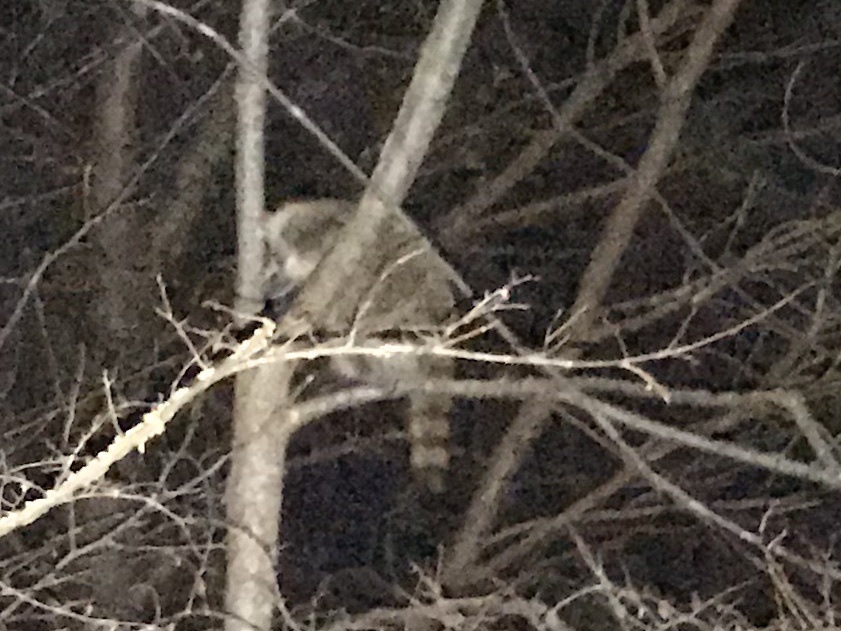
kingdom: Animalia
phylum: Chordata
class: Mammalia
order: Carnivora
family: Procyonidae
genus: Procyon
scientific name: Procyon lotor
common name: Raccoon
